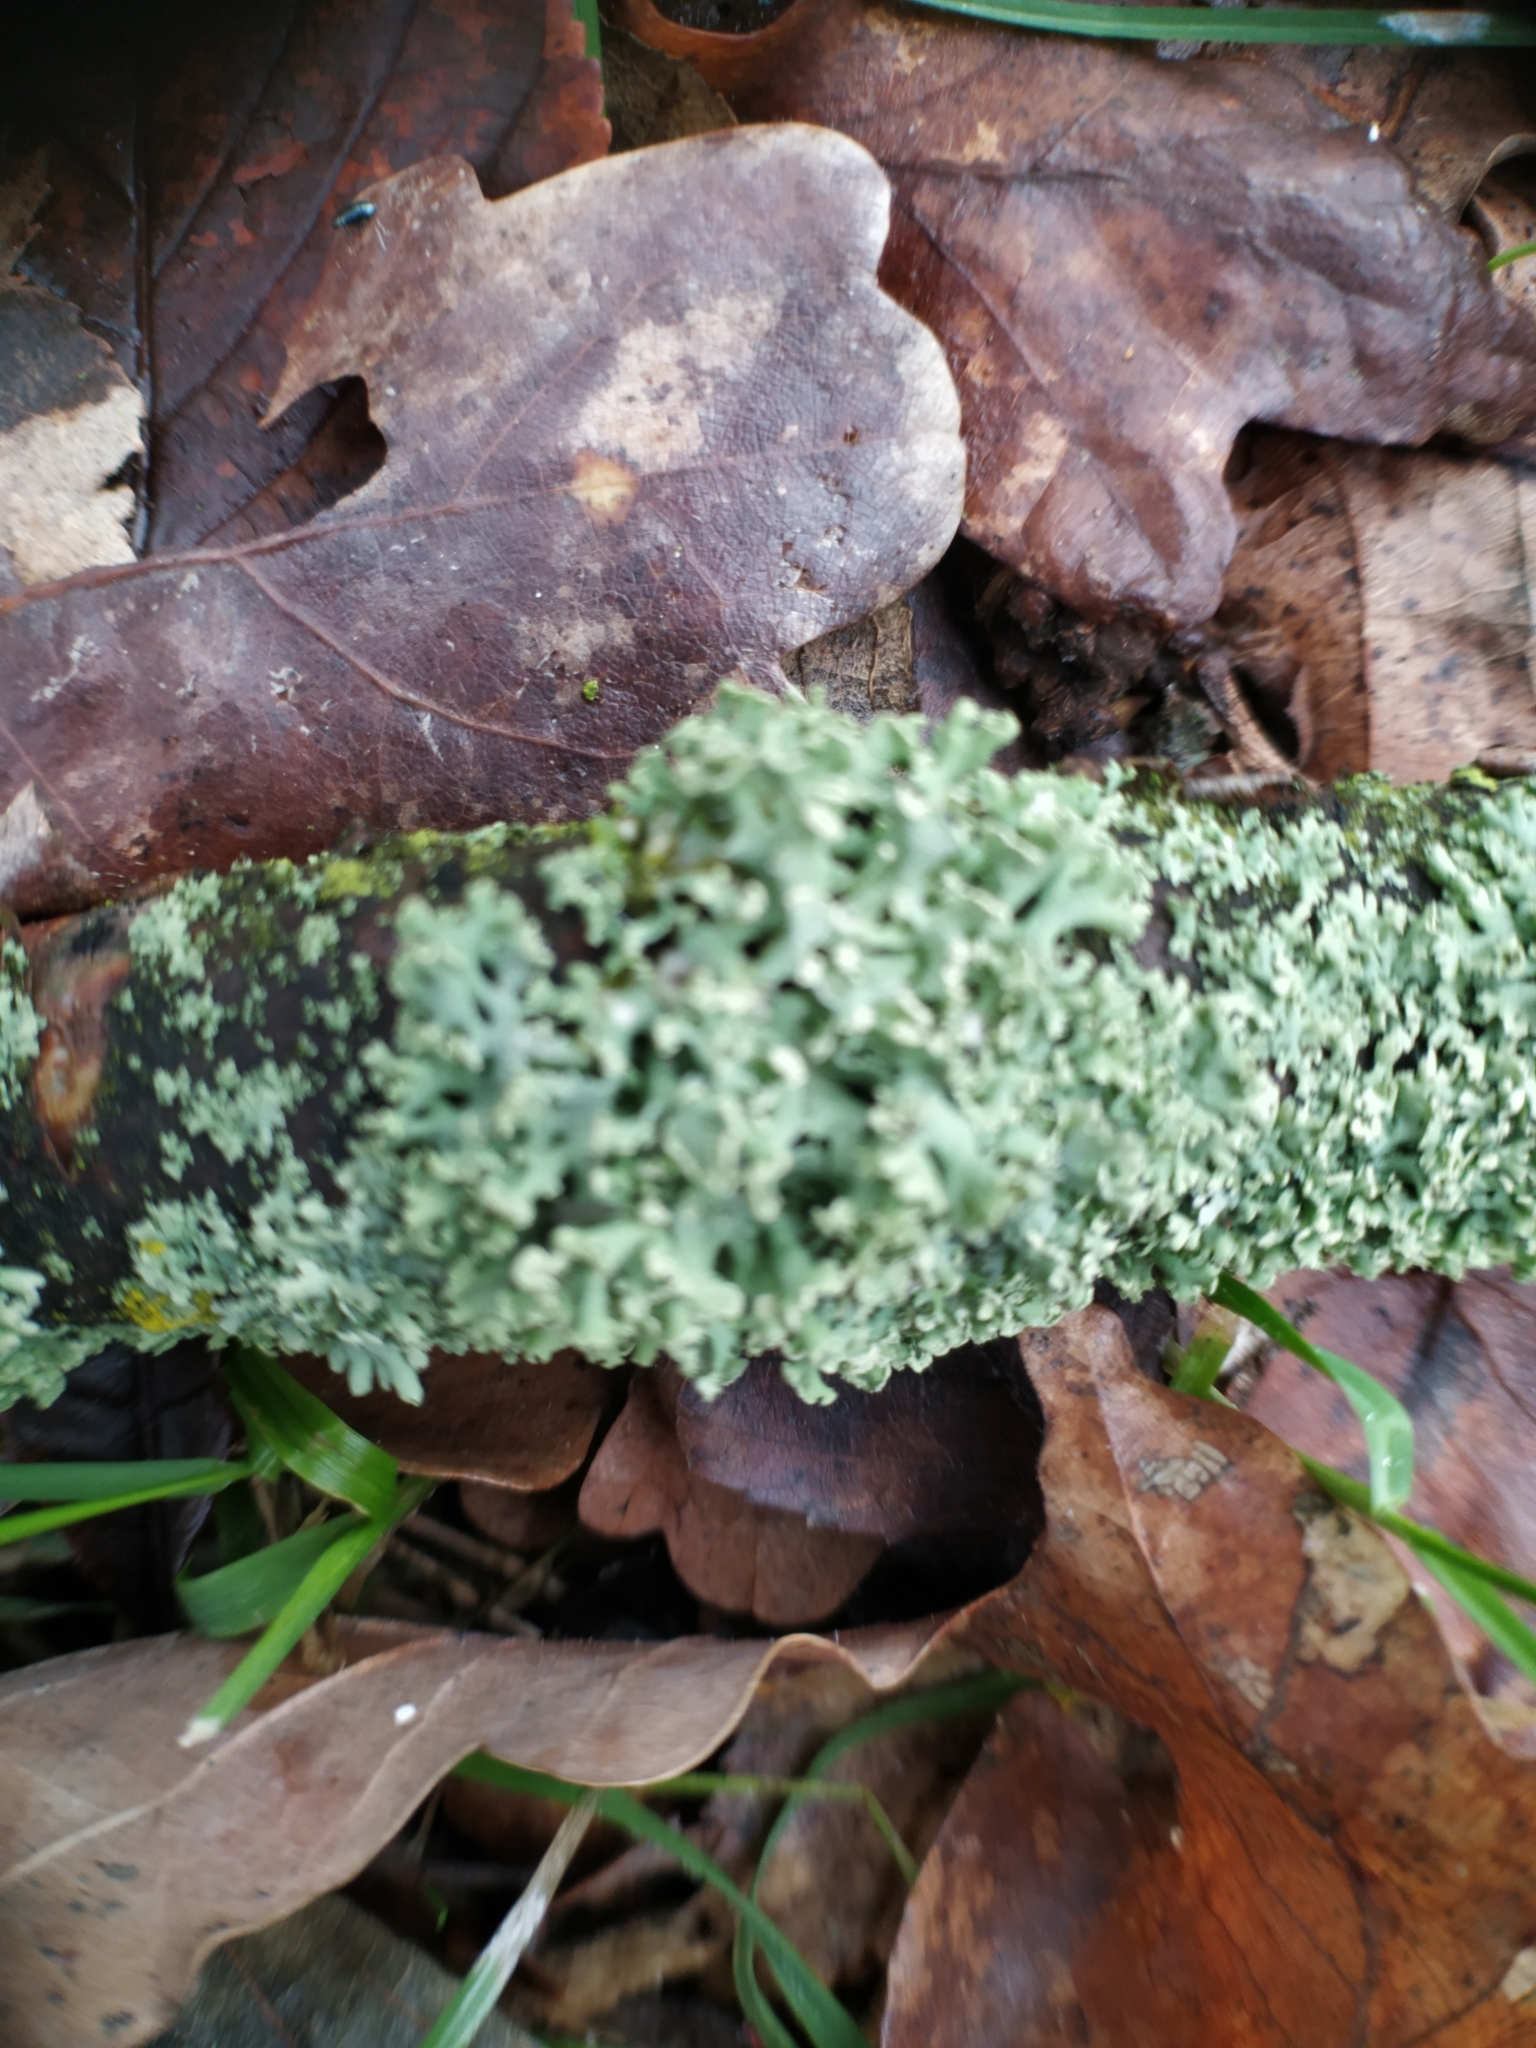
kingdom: Fungi
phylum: Ascomycota
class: Lecanoromycetes
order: Caliciales
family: Physciaceae
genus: Physcia
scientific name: Physcia dubia
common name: Powder-tipped rosette lichen
